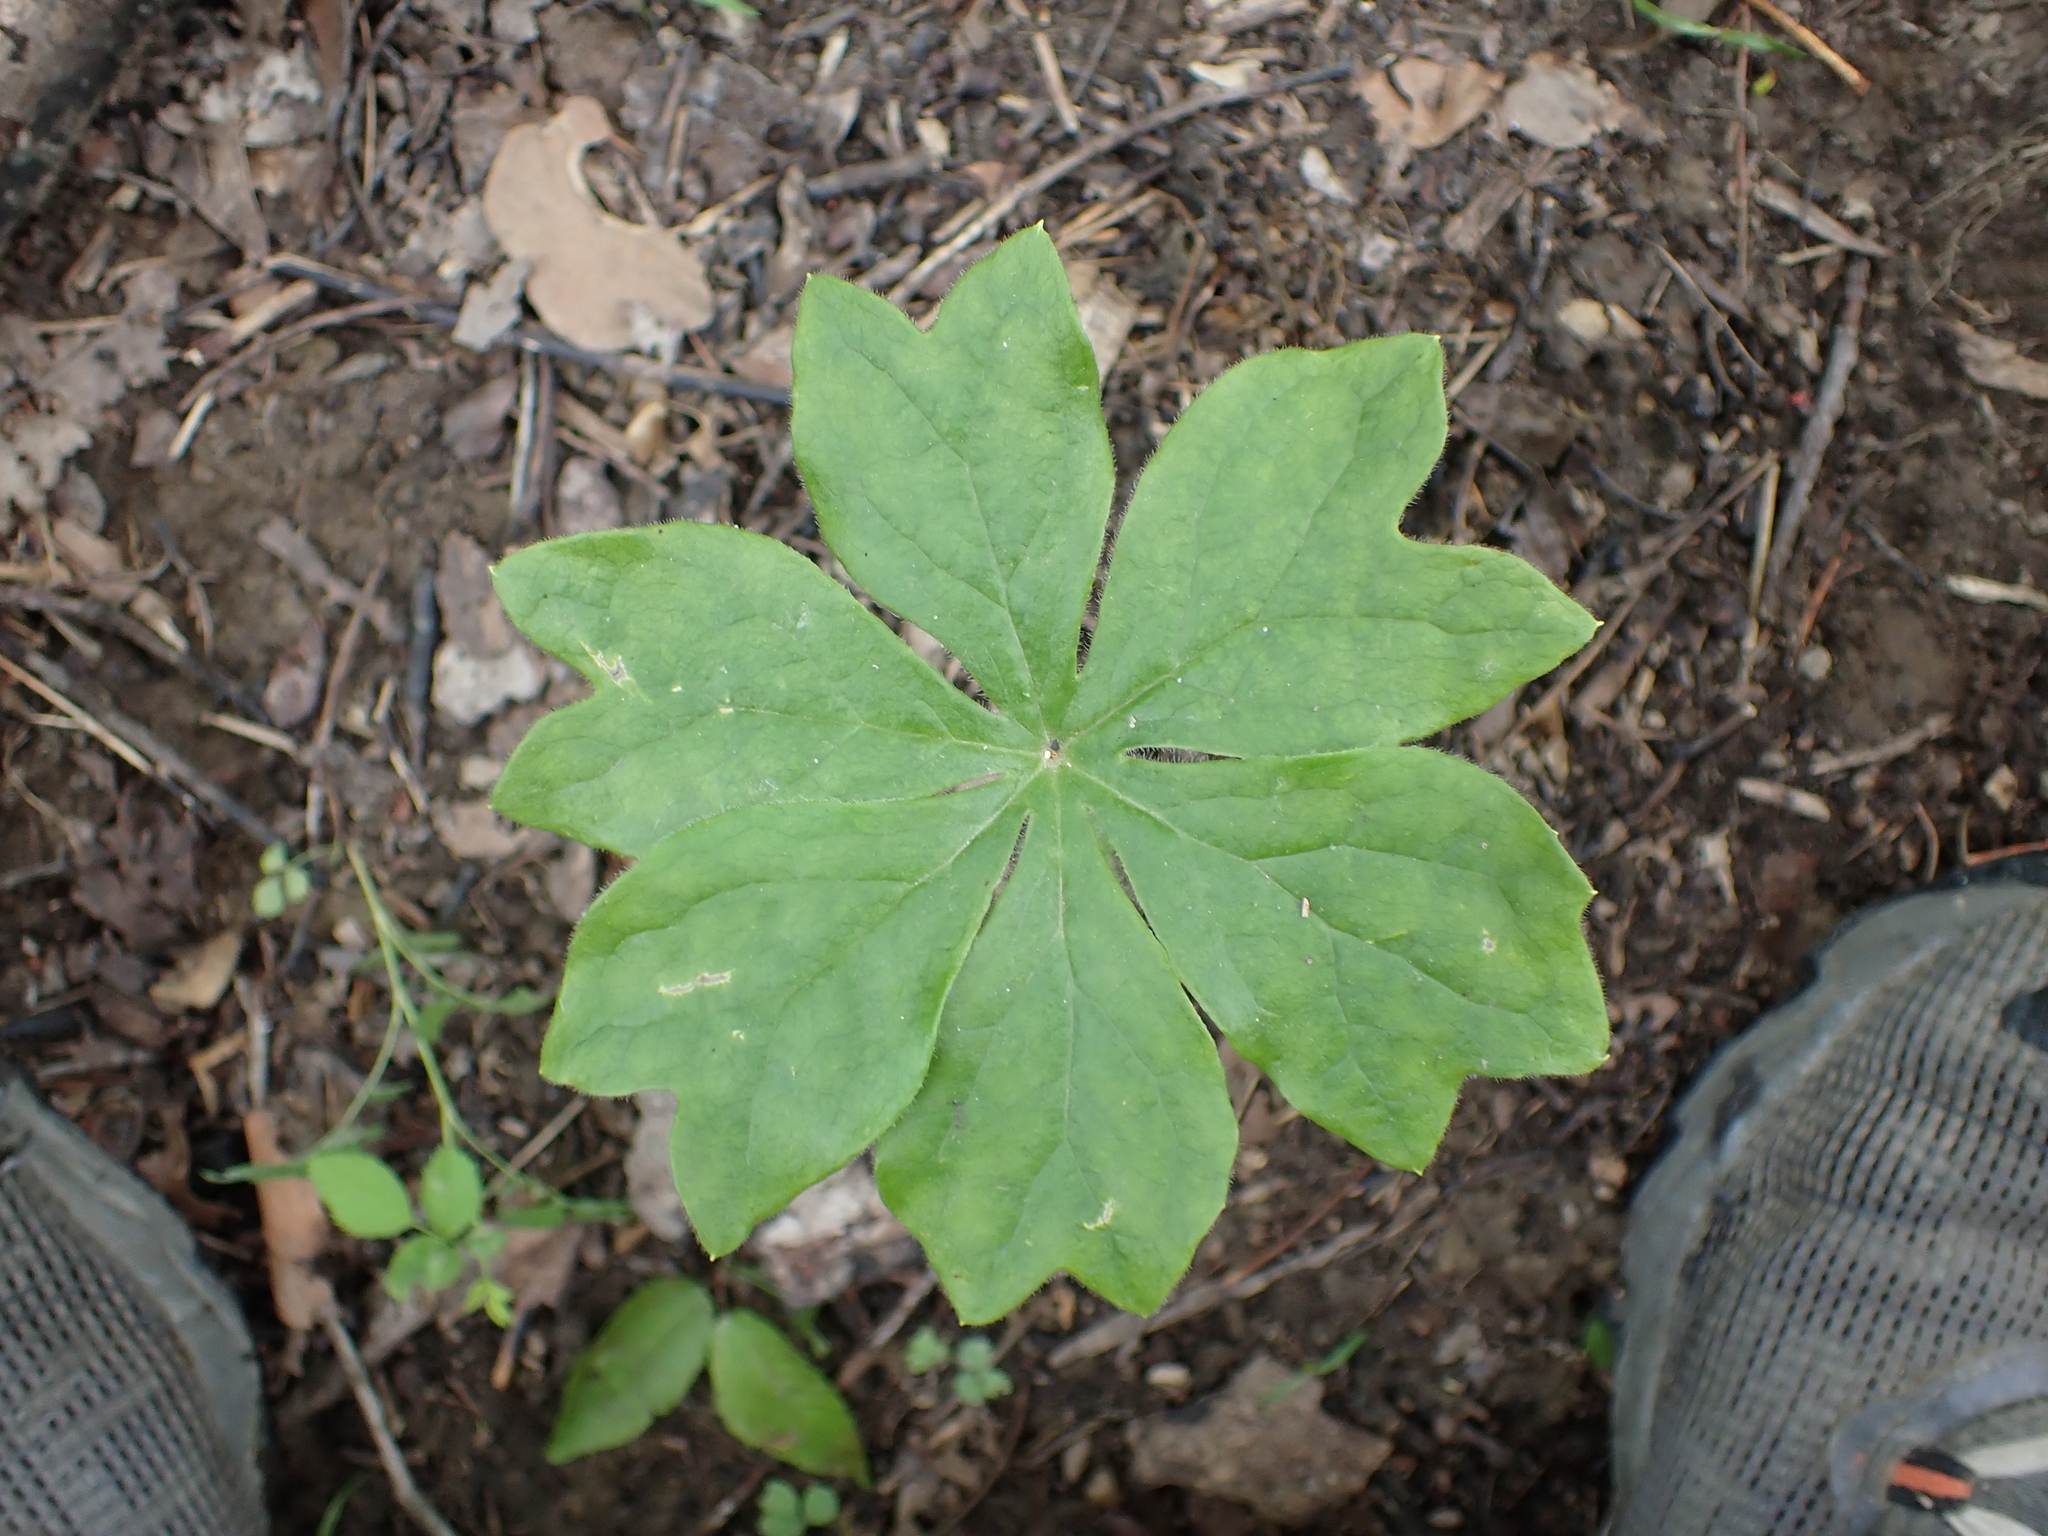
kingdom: Plantae
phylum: Tracheophyta
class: Magnoliopsida
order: Ranunculales
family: Berberidaceae
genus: Podophyllum
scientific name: Podophyllum peltatum
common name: Wild mandrake
